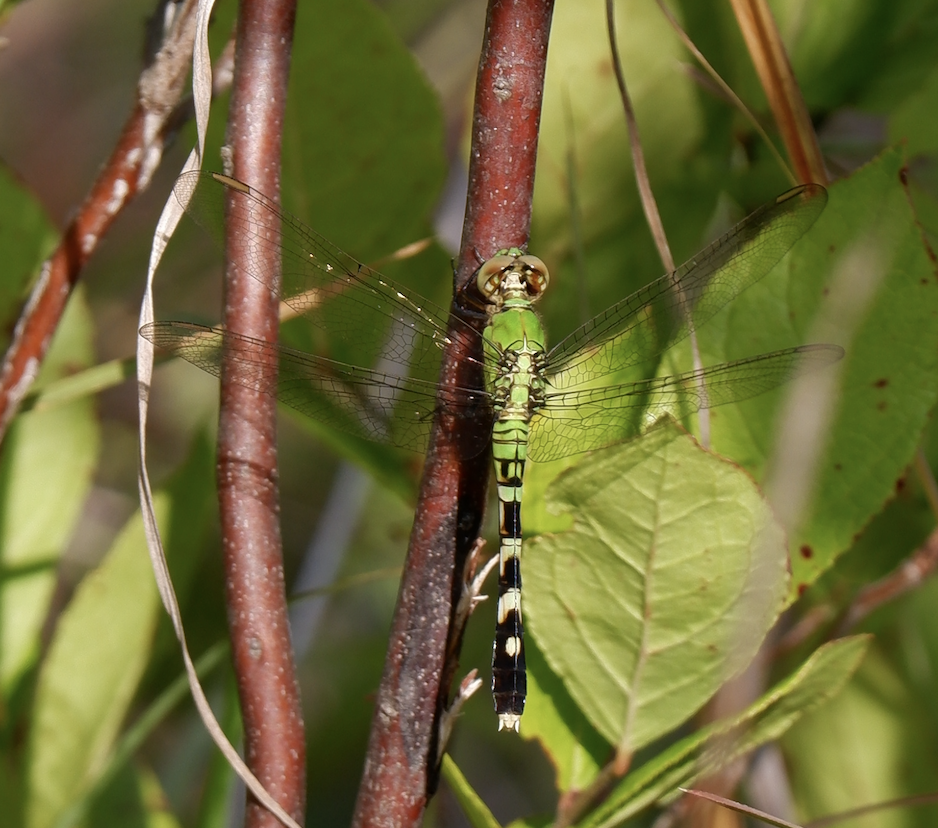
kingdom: Animalia
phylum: Arthropoda
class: Insecta
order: Odonata
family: Libellulidae
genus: Erythemis
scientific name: Erythemis simplicicollis
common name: Eastern pondhawk
